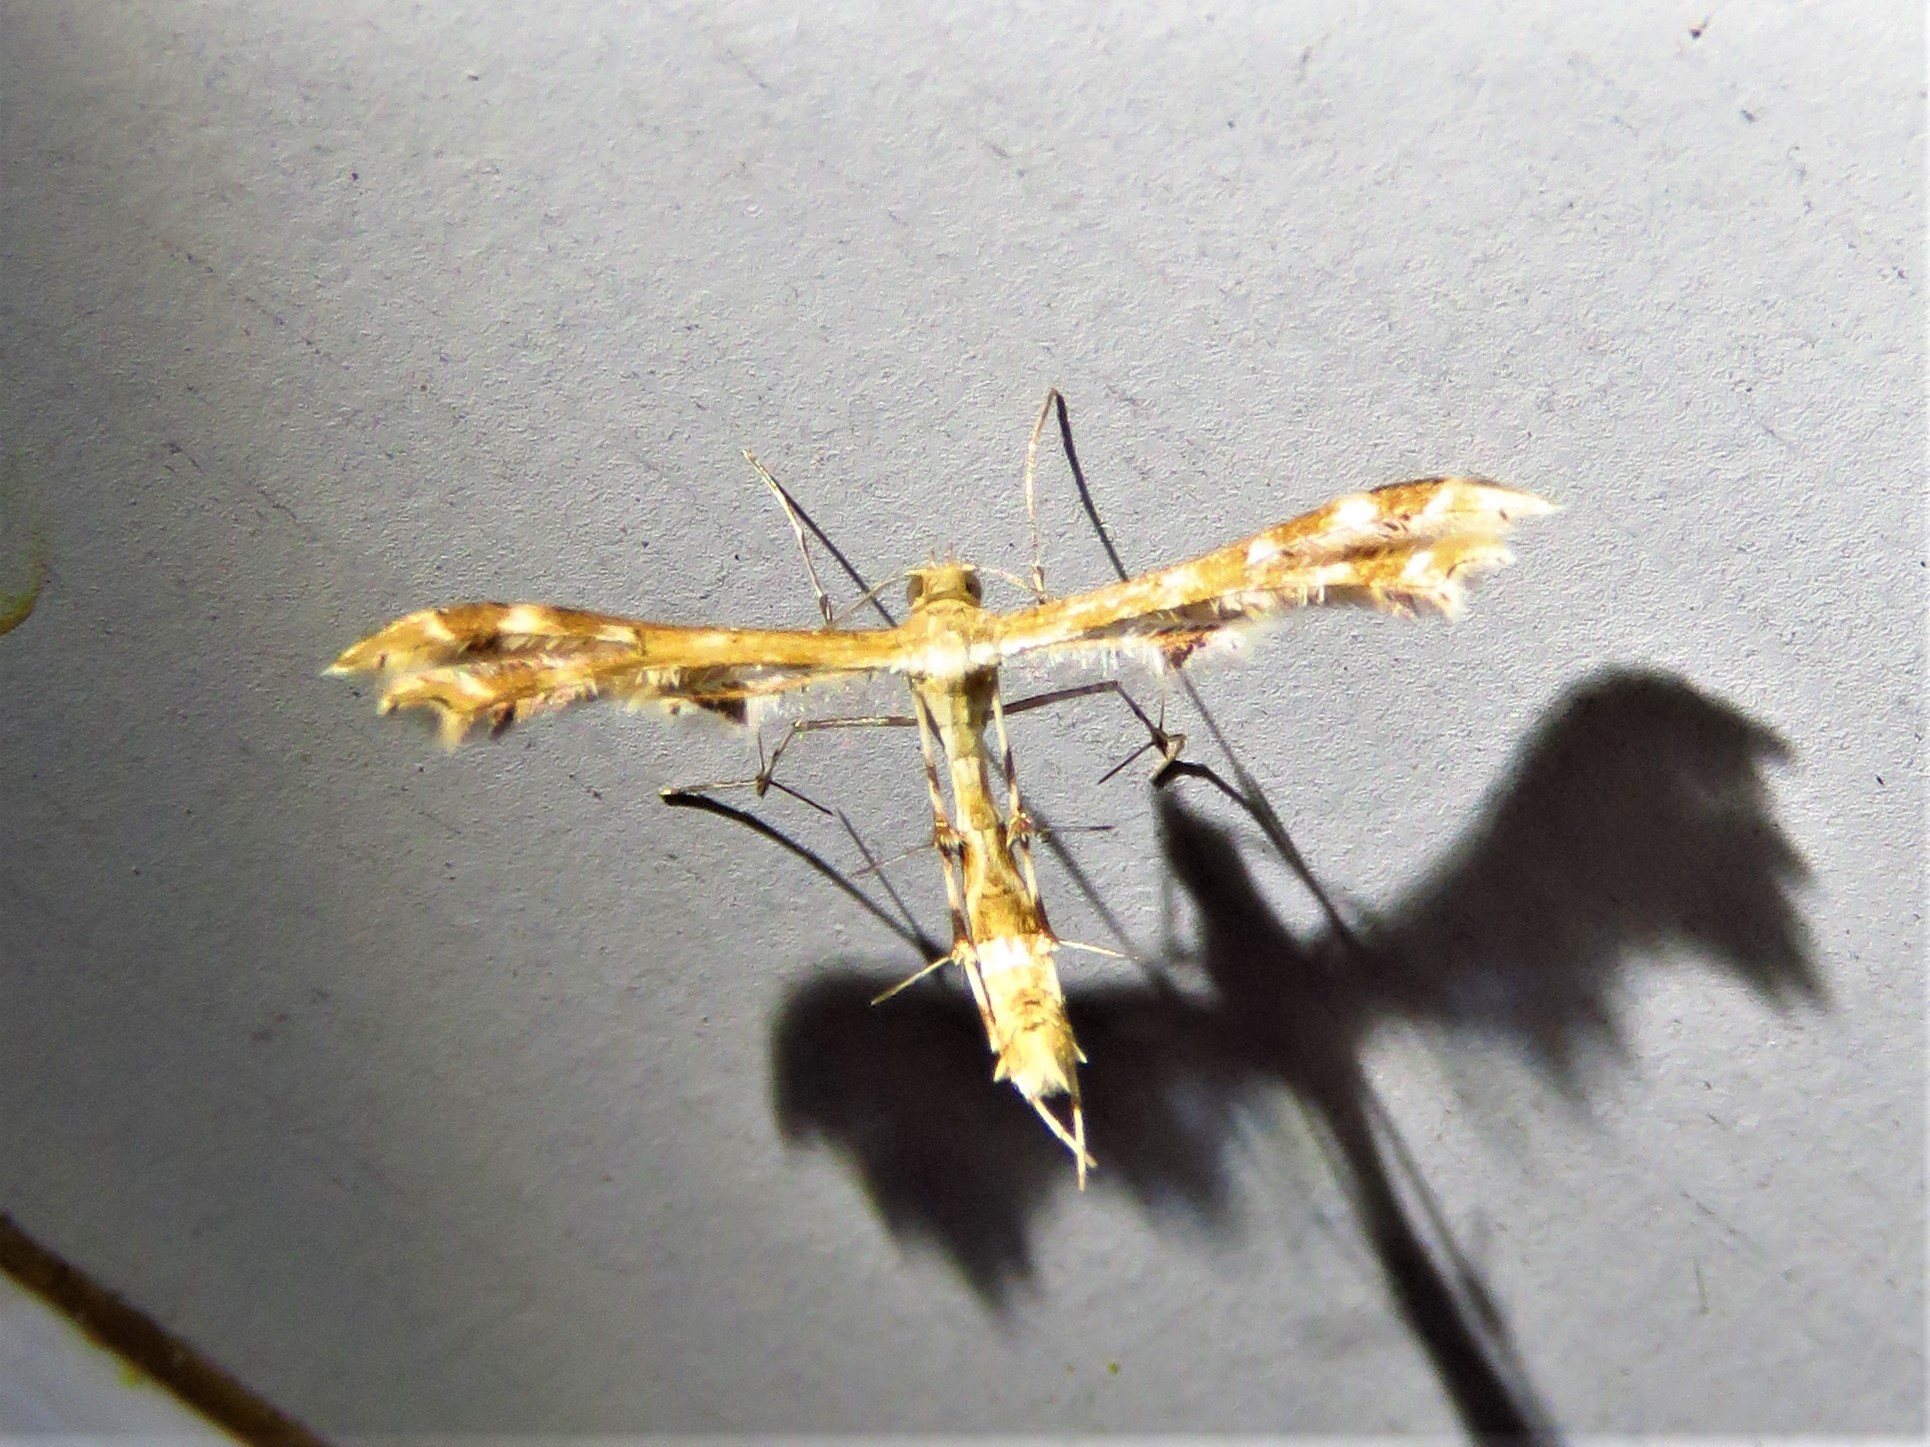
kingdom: Animalia
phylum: Arthropoda
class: Insecta
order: Lepidoptera
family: Pterophoridae
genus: Sphenarches
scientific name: Sphenarches anisodactylus
